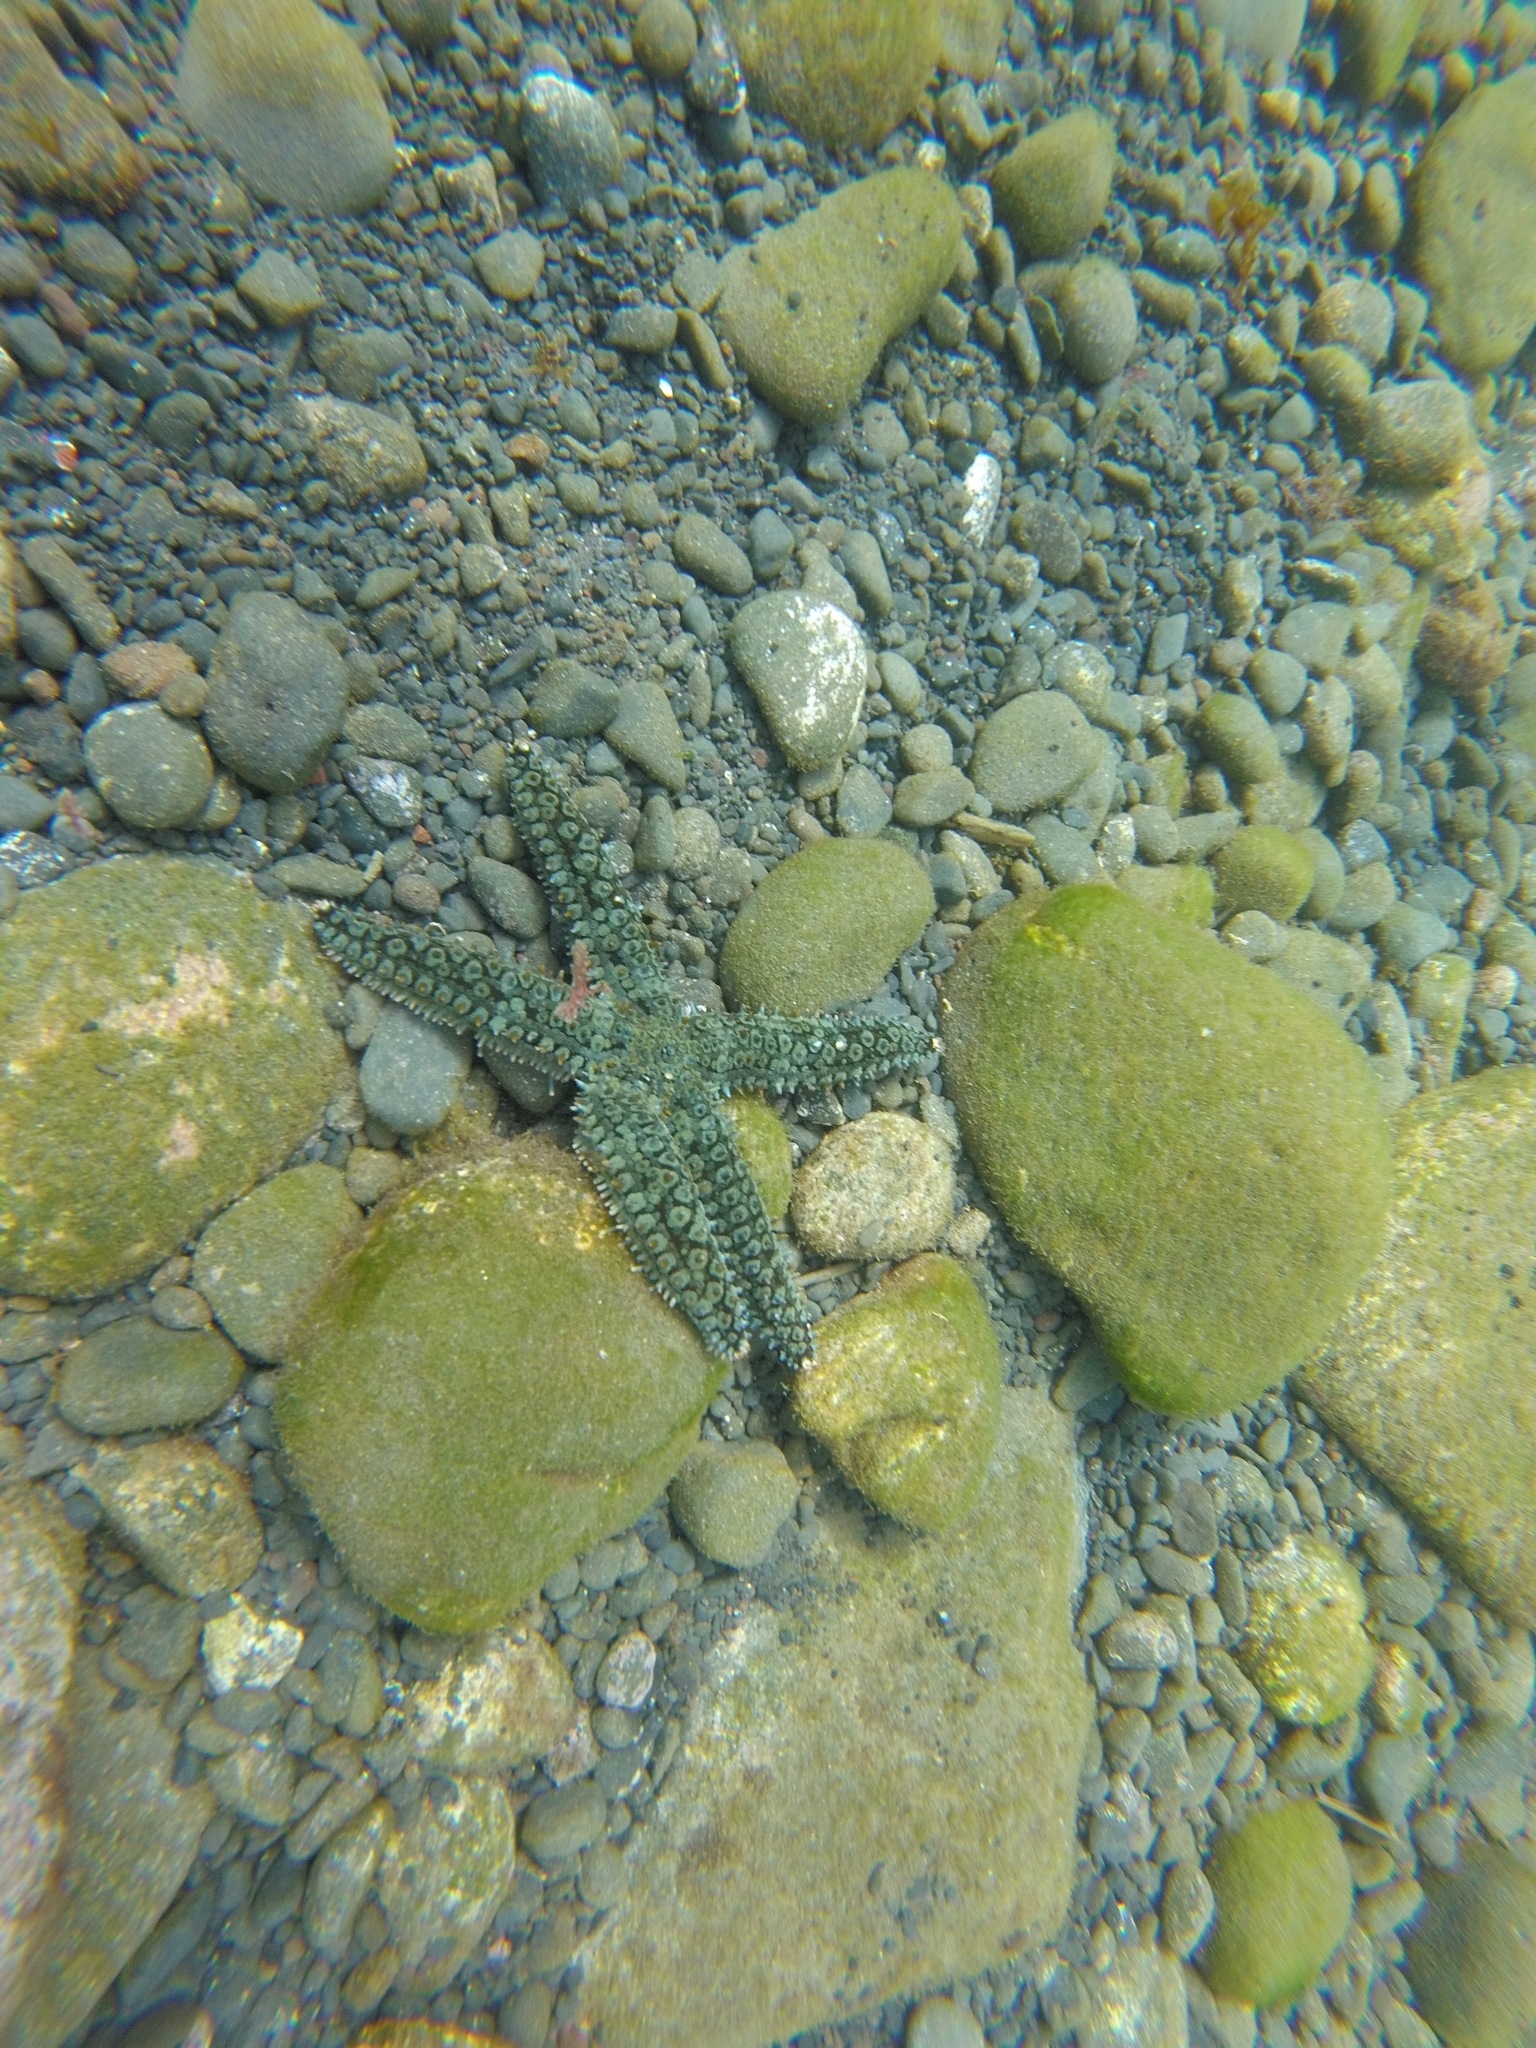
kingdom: Animalia
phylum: Echinodermata
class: Asteroidea
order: Forcipulatida
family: Asteriidae
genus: Marthasterias
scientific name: Marthasterias glacialis
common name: Spiny starfish
